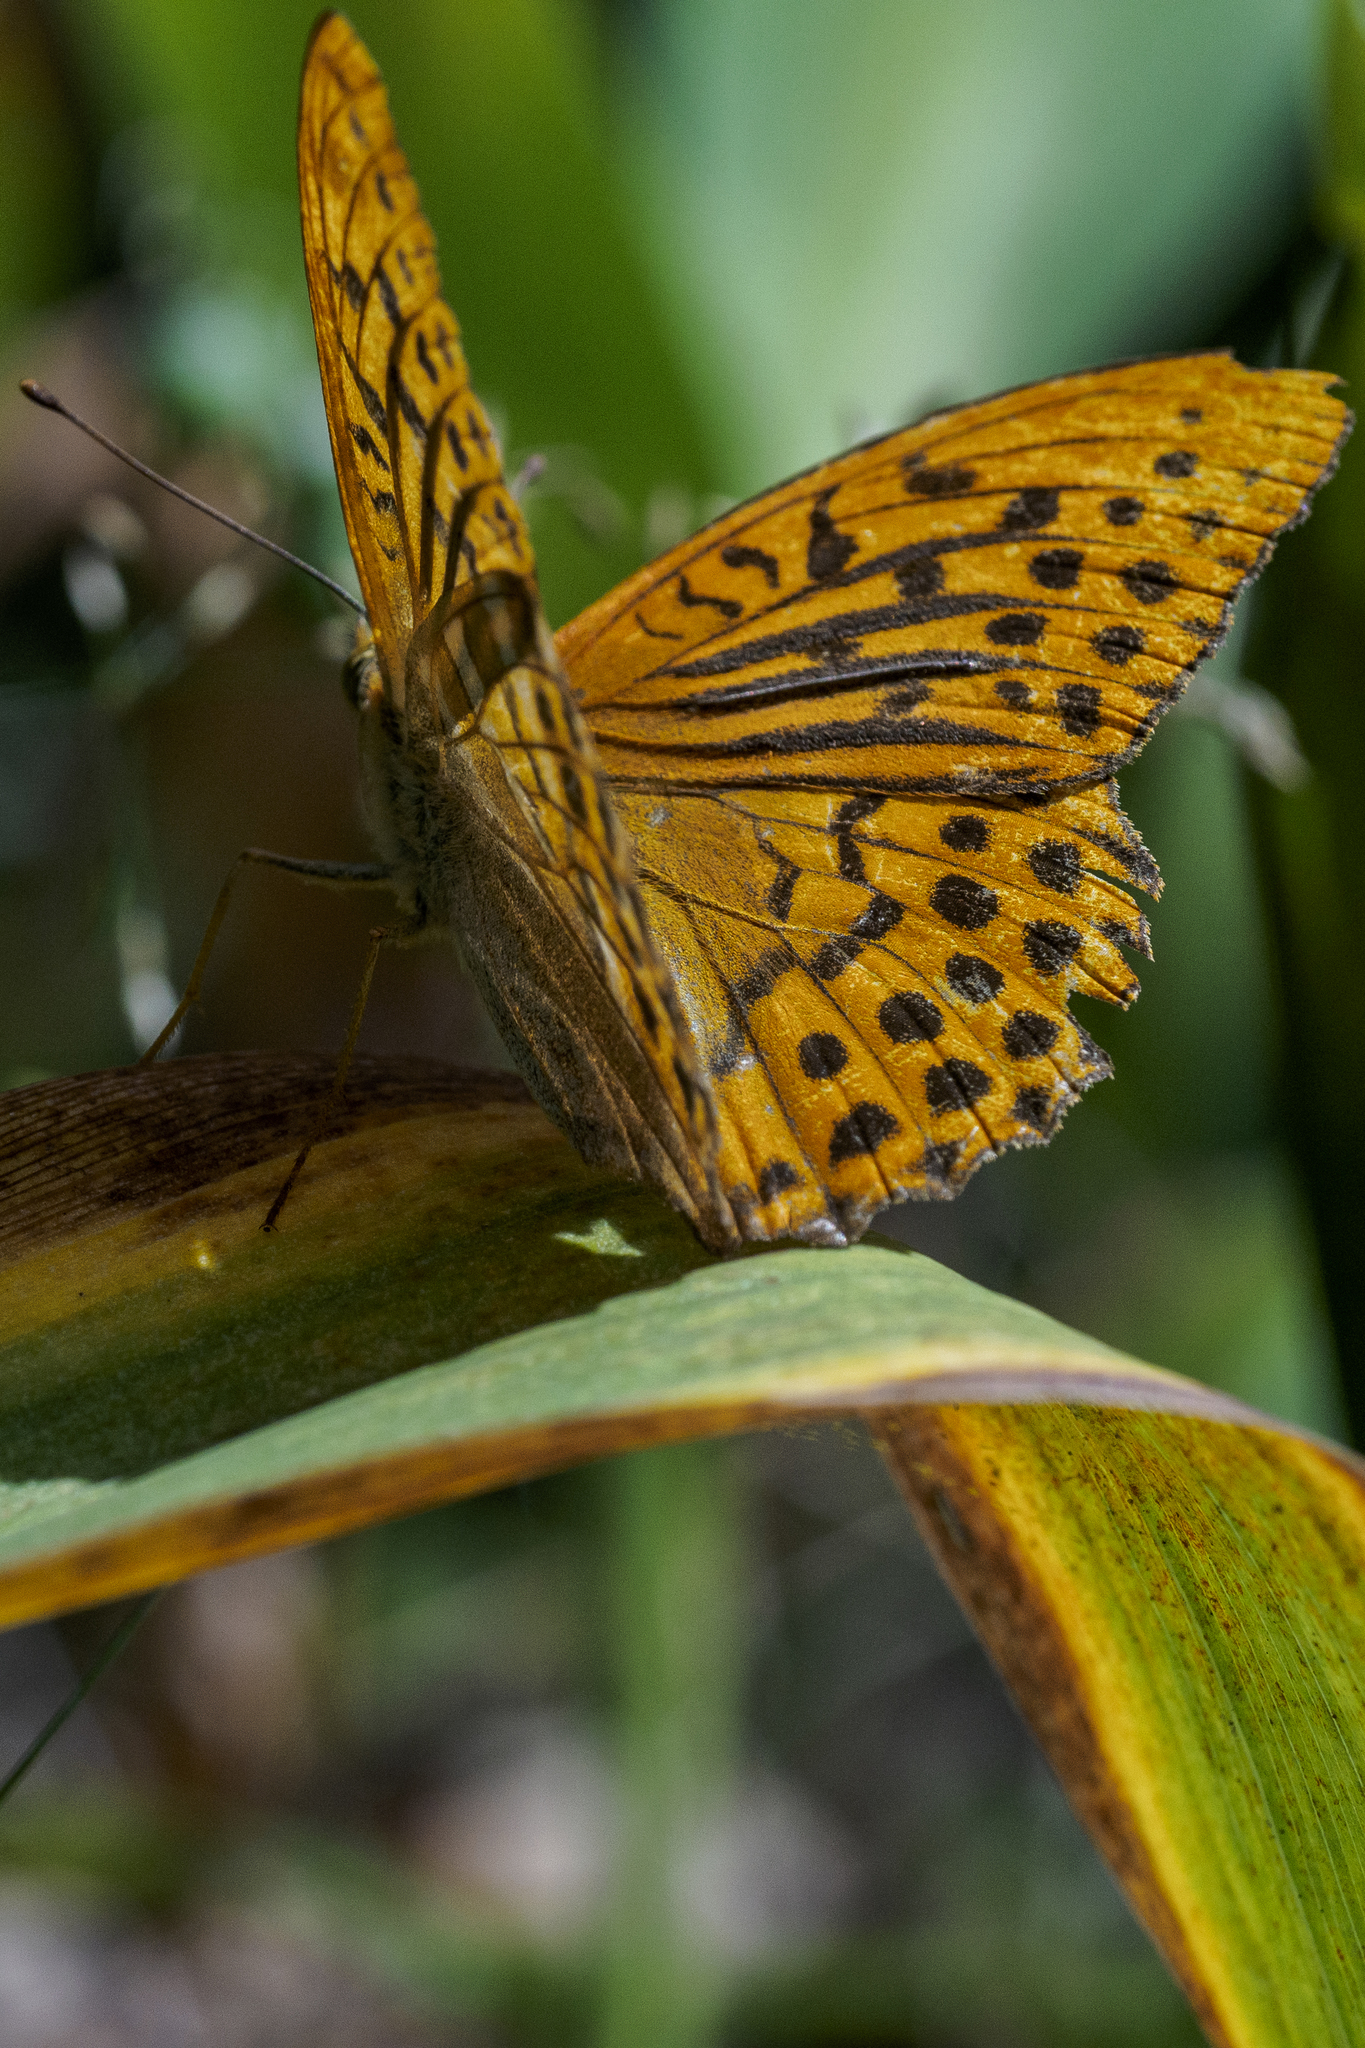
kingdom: Animalia
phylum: Arthropoda
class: Insecta
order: Lepidoptera
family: Nymphalidae
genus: Argynnis
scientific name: Argynnis paphia
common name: Silver-washed fritillary
